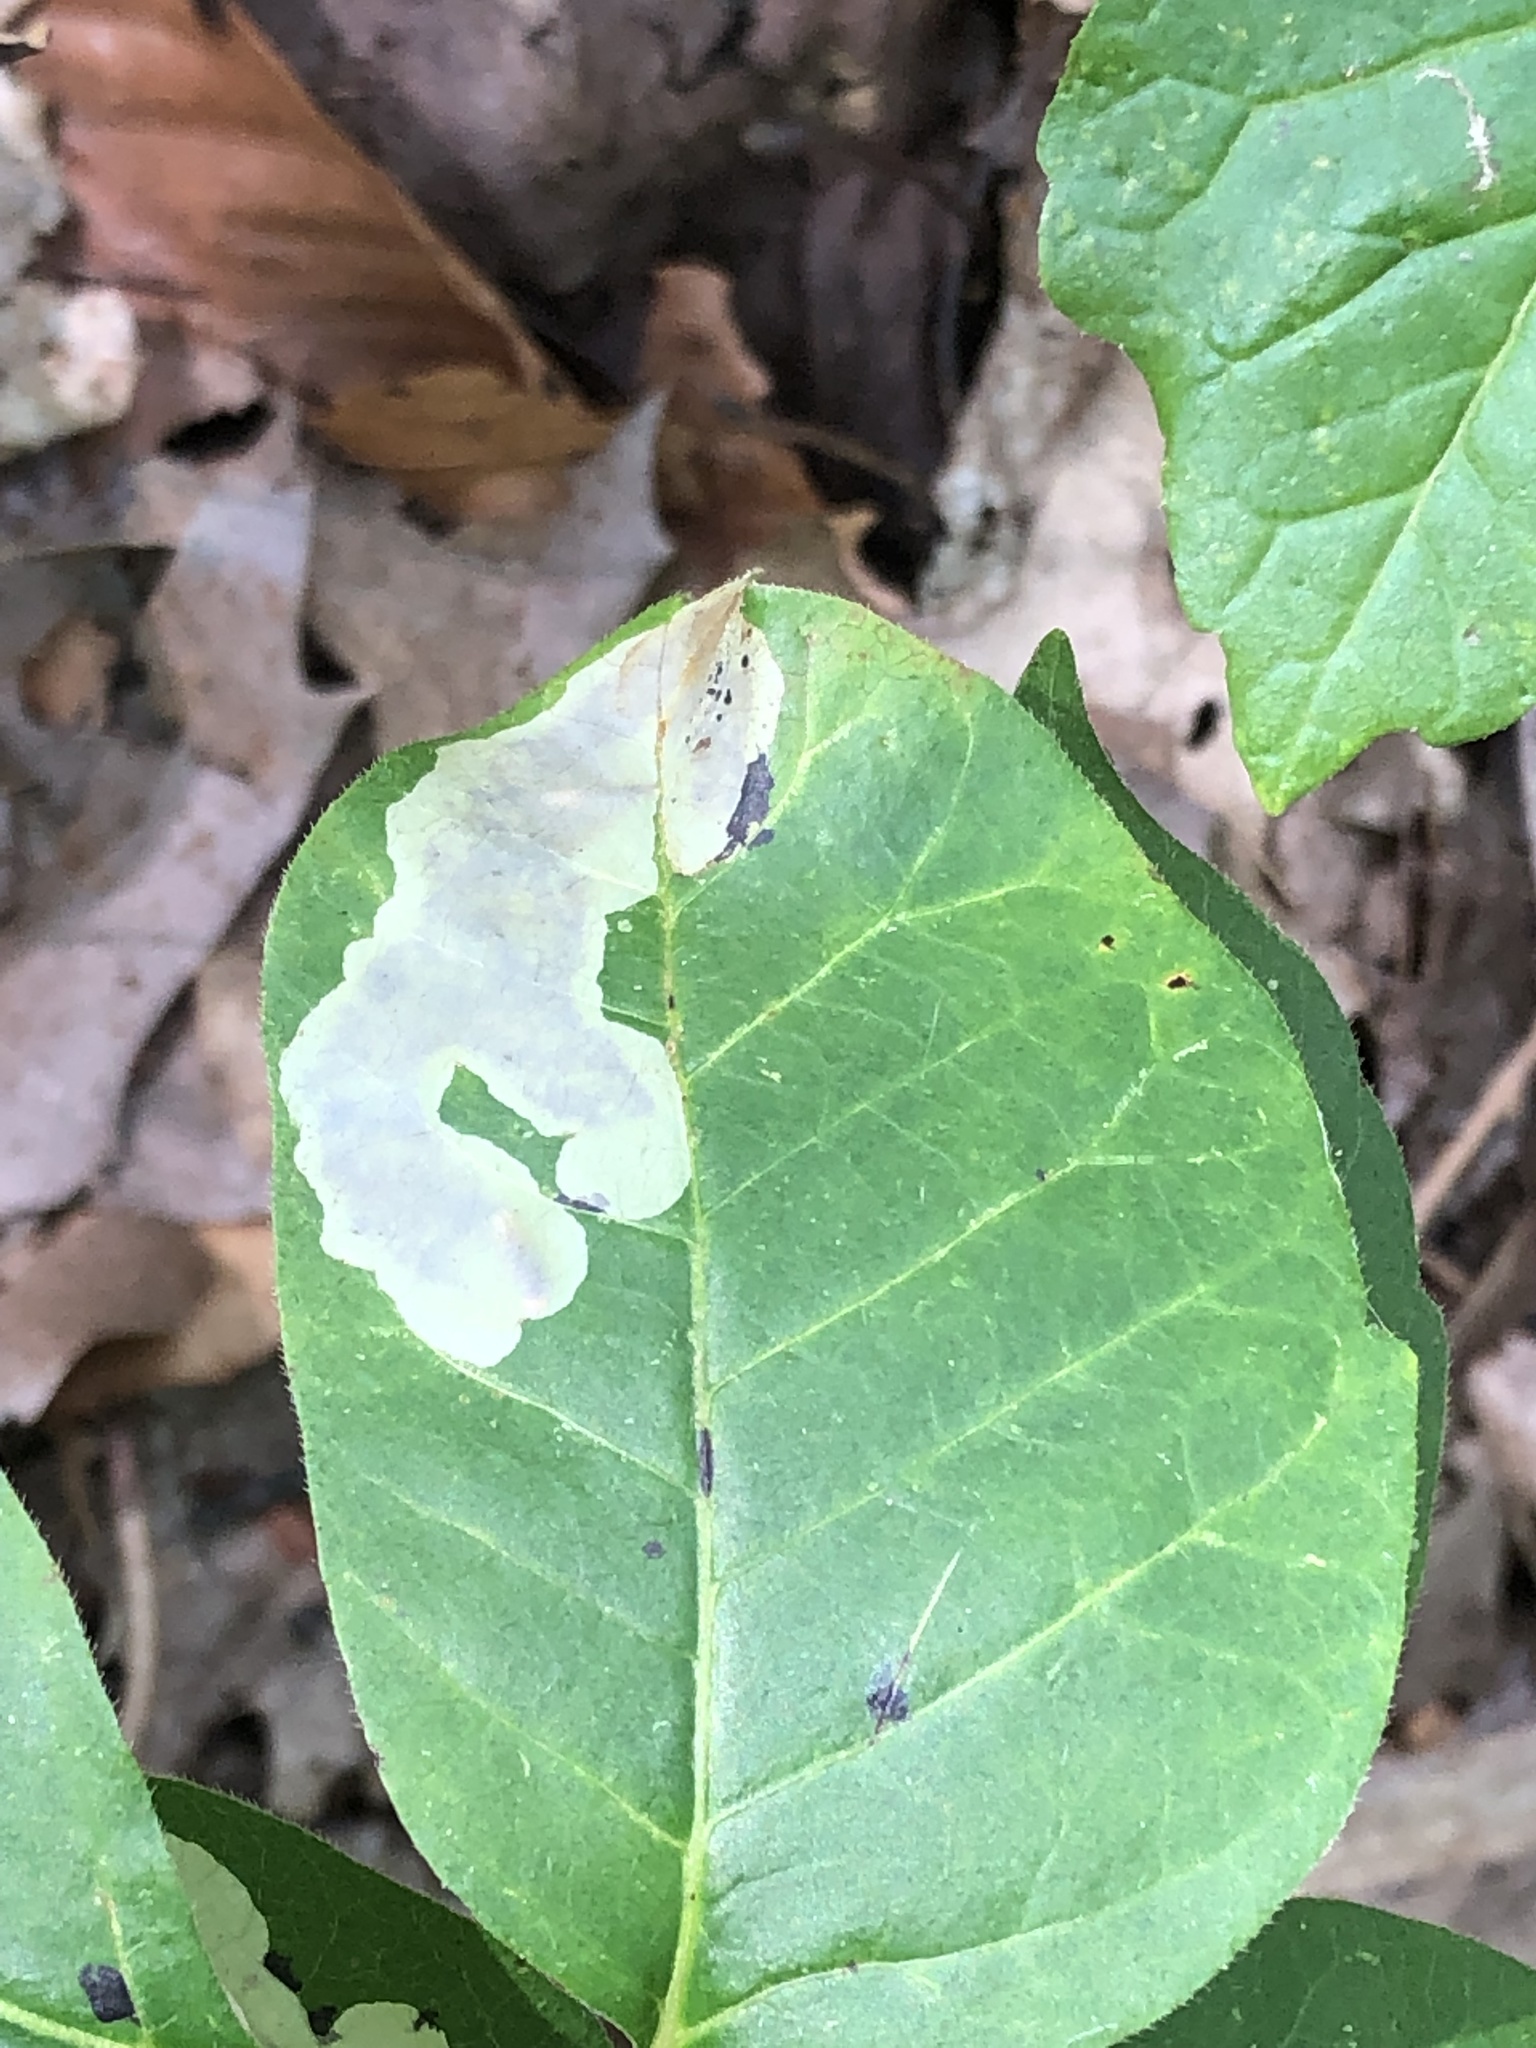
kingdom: Animalia
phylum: Arthropoda
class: Insecta
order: Lepidoptera
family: Gracillariidae
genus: Cameraria
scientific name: Cameraria guttifinitella
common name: Poison ivy leaf-miner moth
